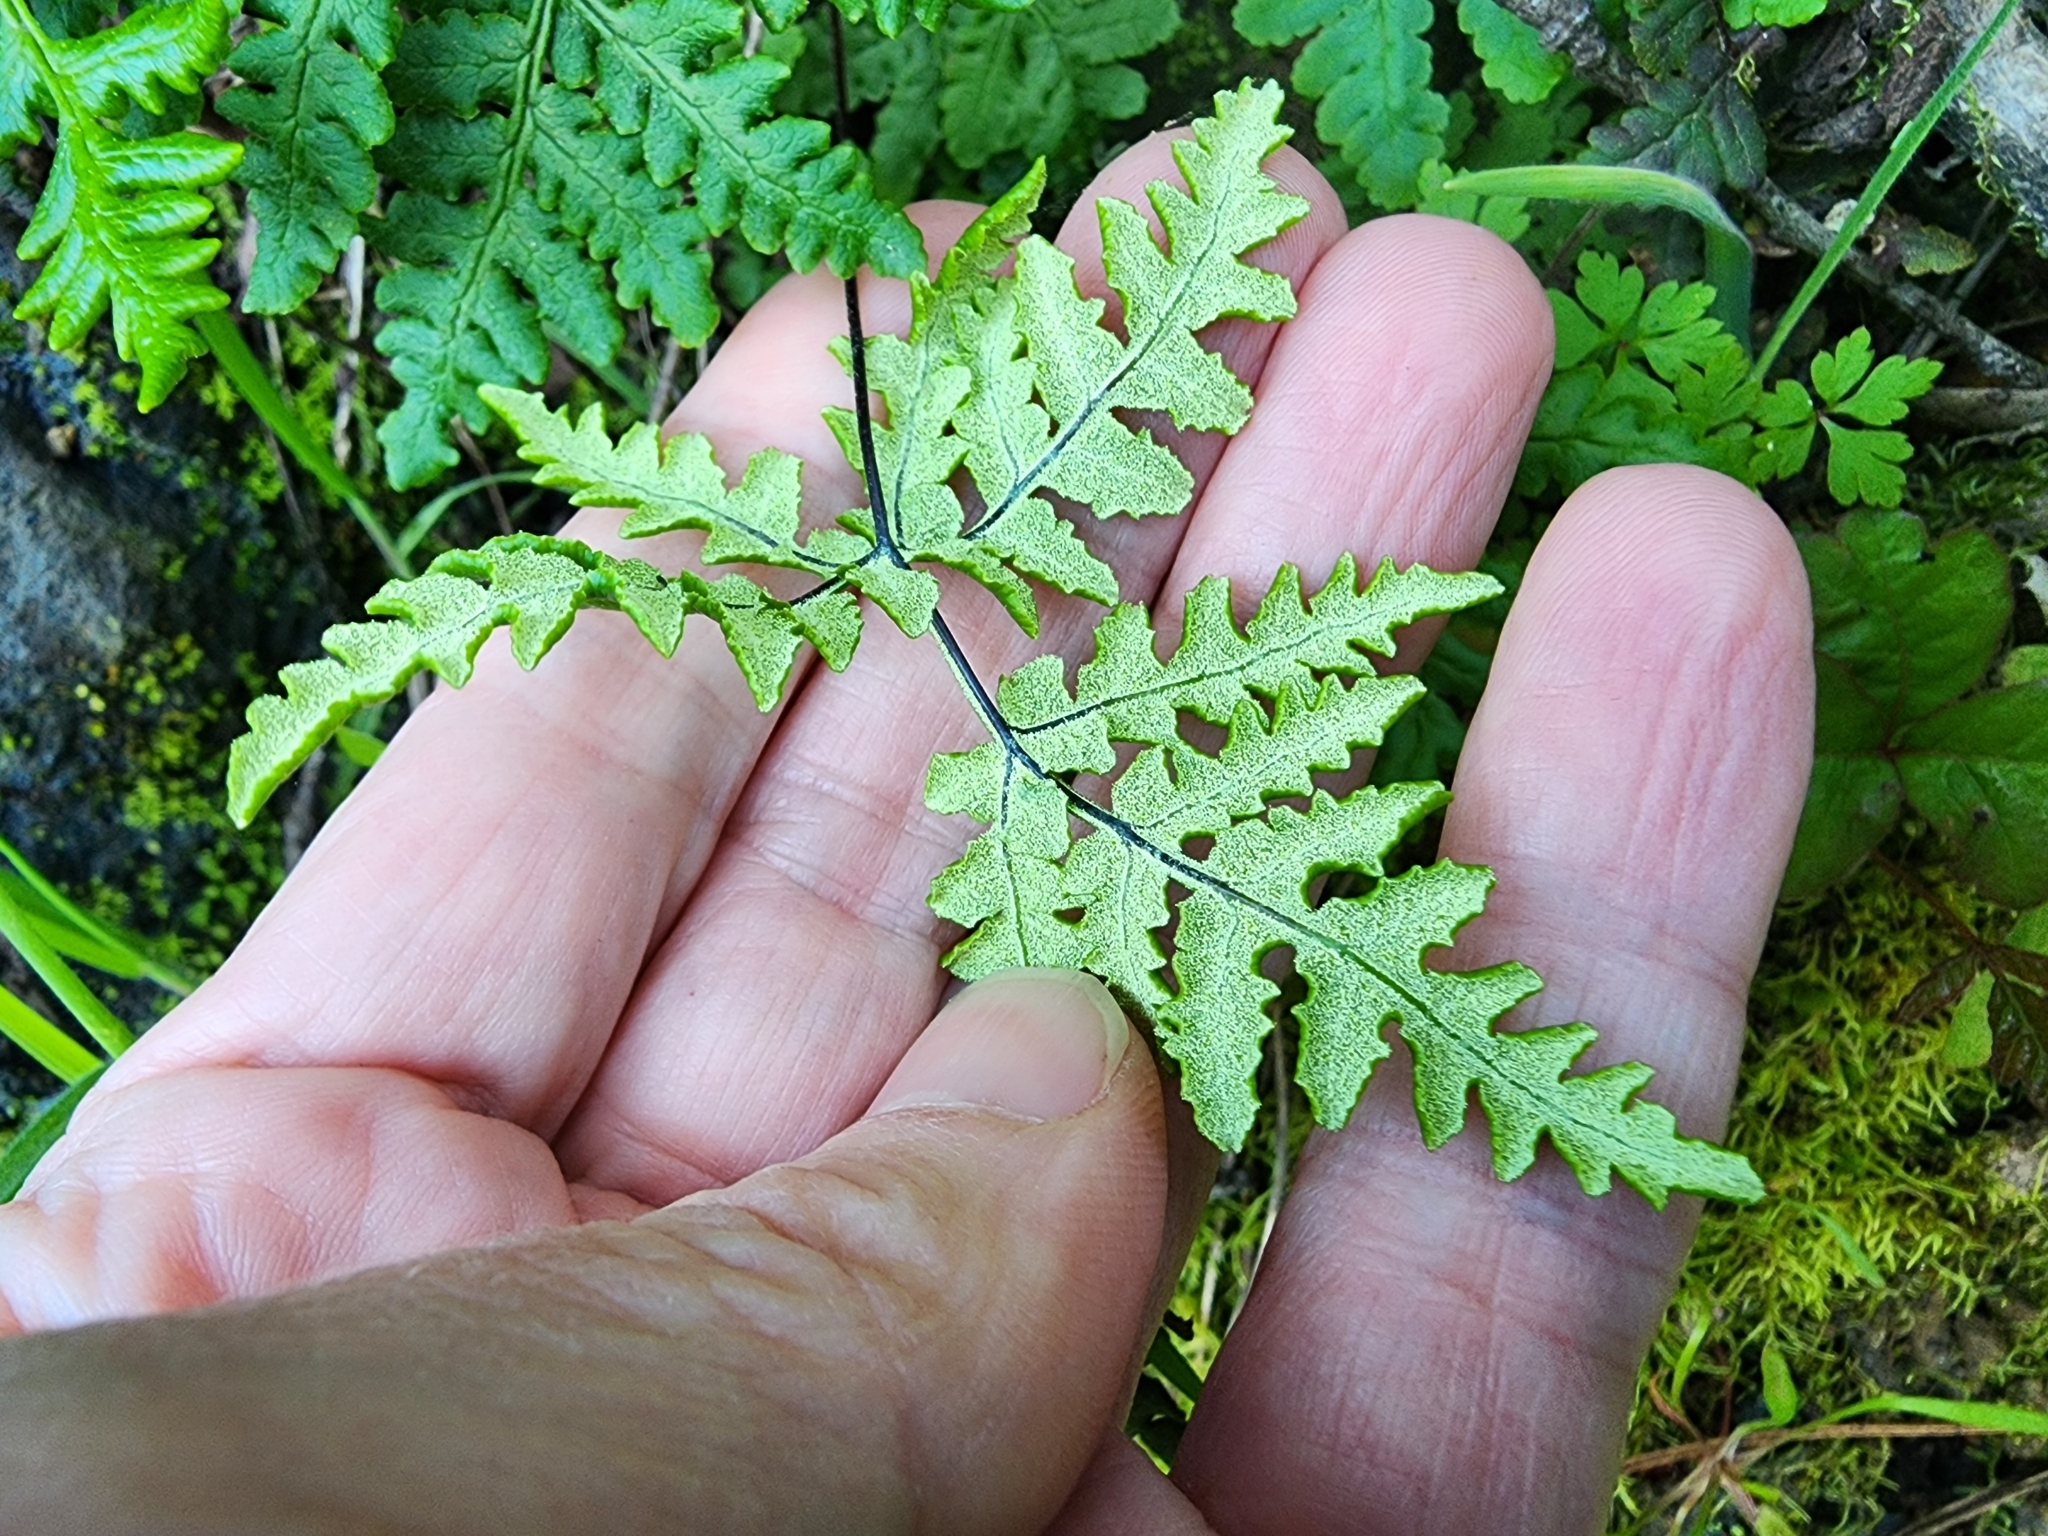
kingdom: Plantae
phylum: Tracheophyta
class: Polypodiopsida
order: Polypodiales
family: Pteridaceae
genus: Pentagramma
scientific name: Pentagramma triangularis
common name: Gold fern
